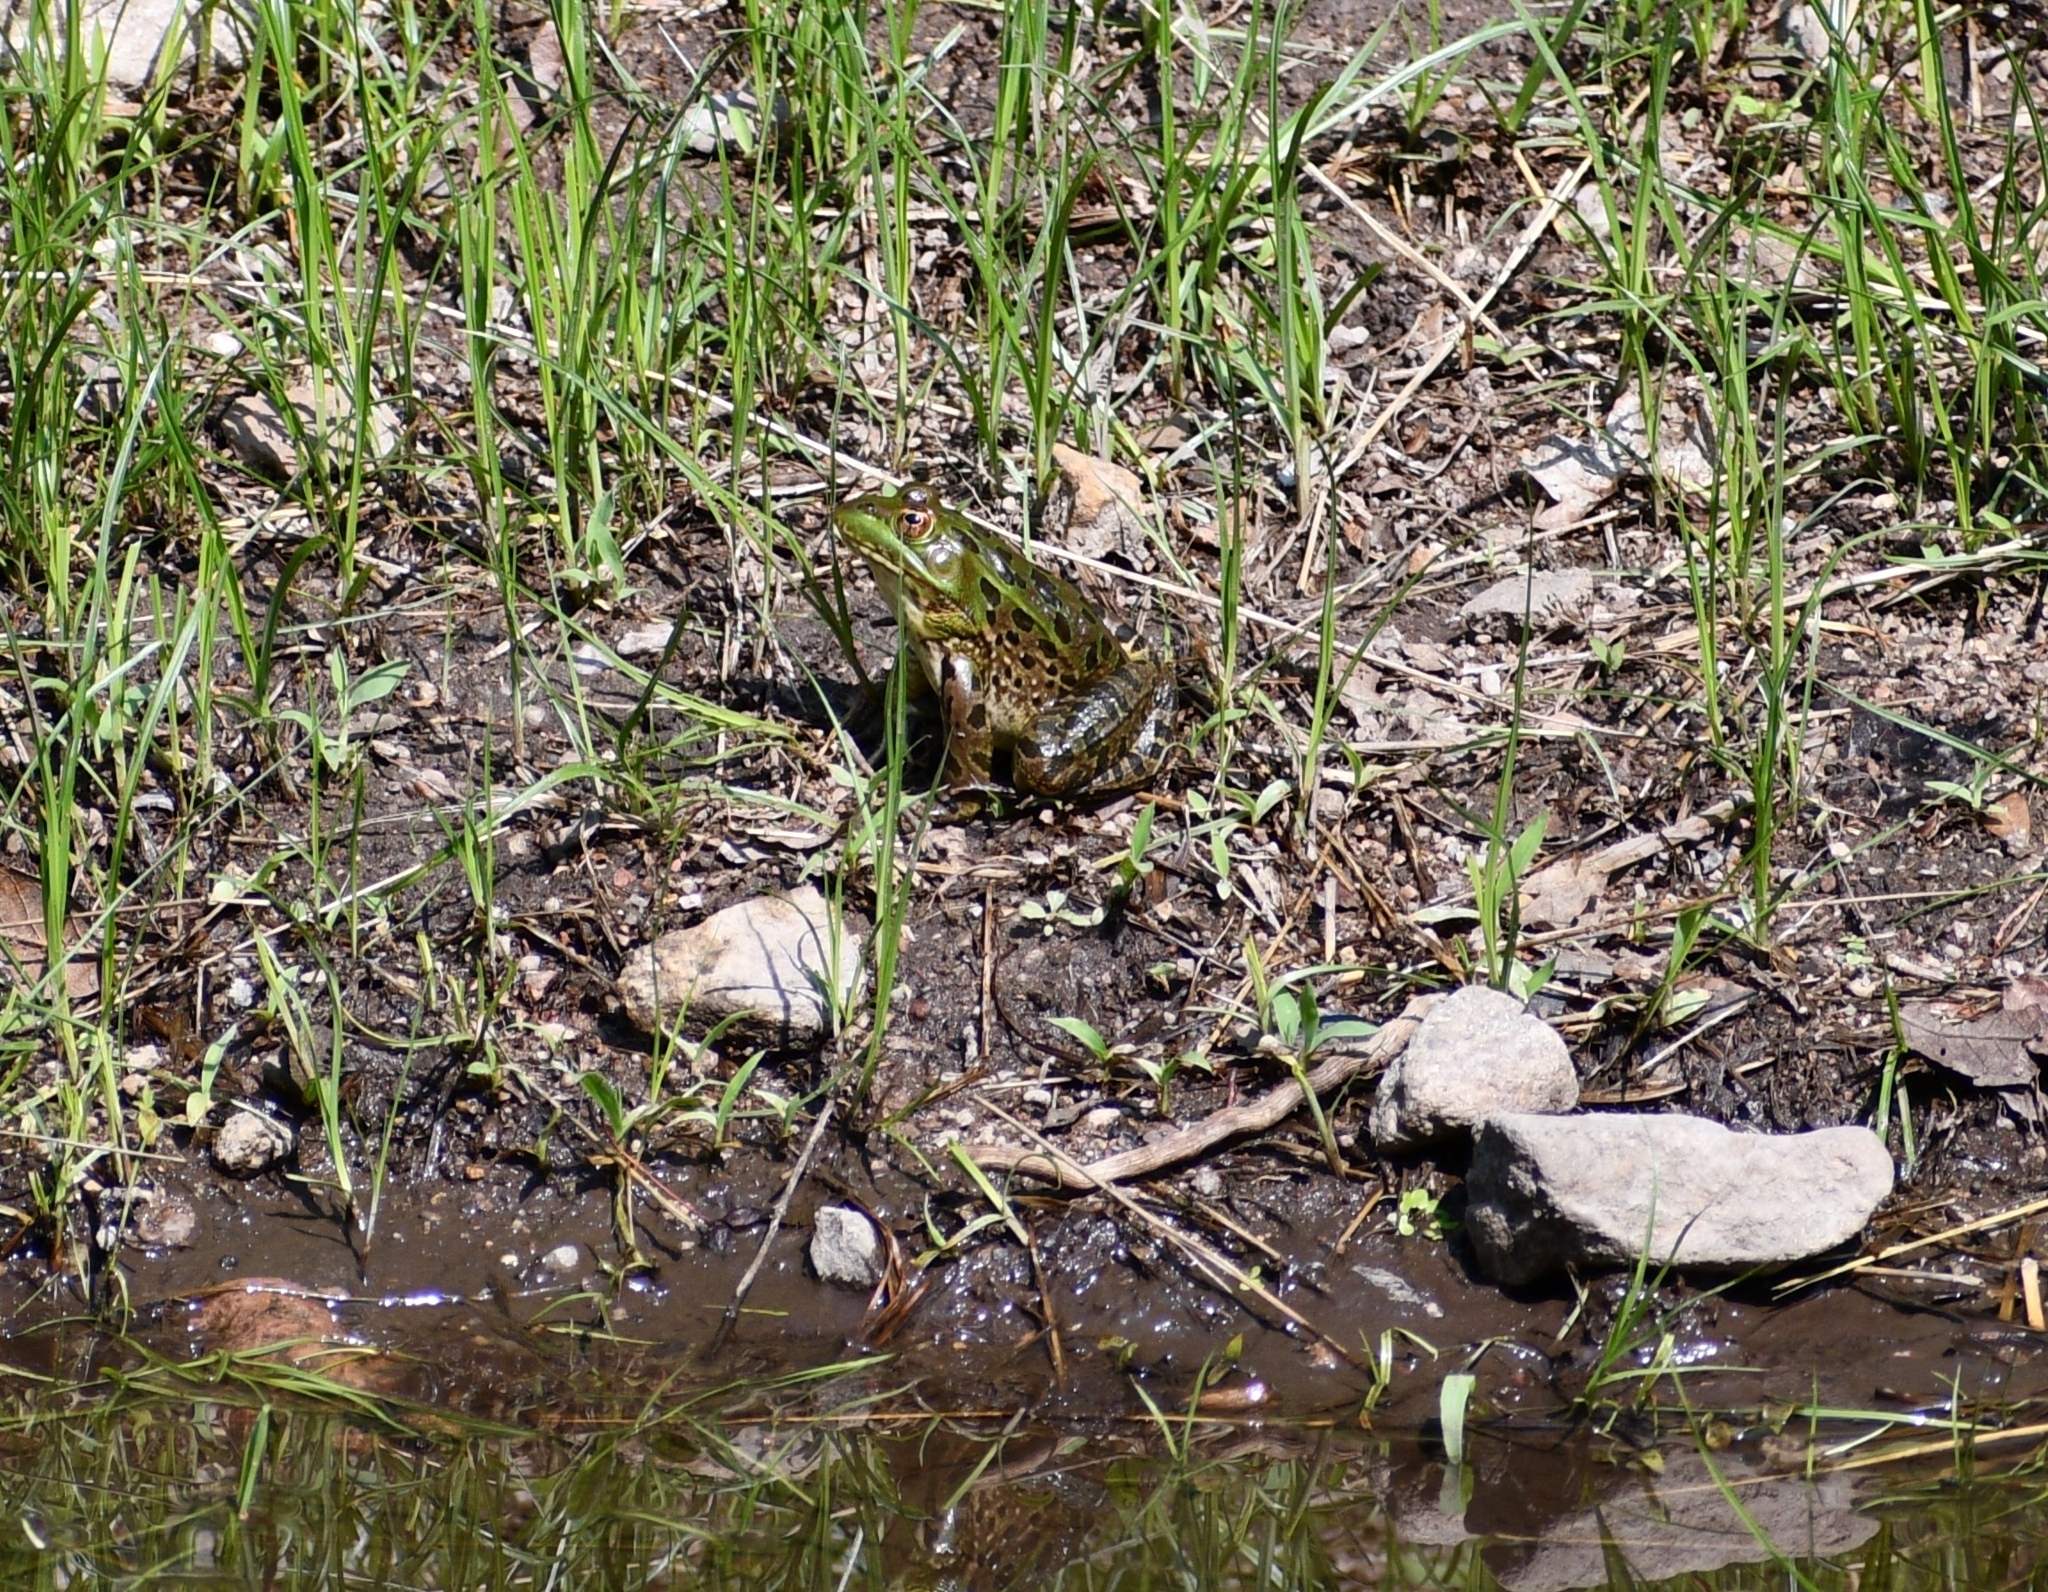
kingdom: Animalia
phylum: Chordata
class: Amphibia
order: Anura
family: Ranidae
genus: Lithobates
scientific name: Lithobates chiricahuensis
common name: Chiricahua leopard frog
